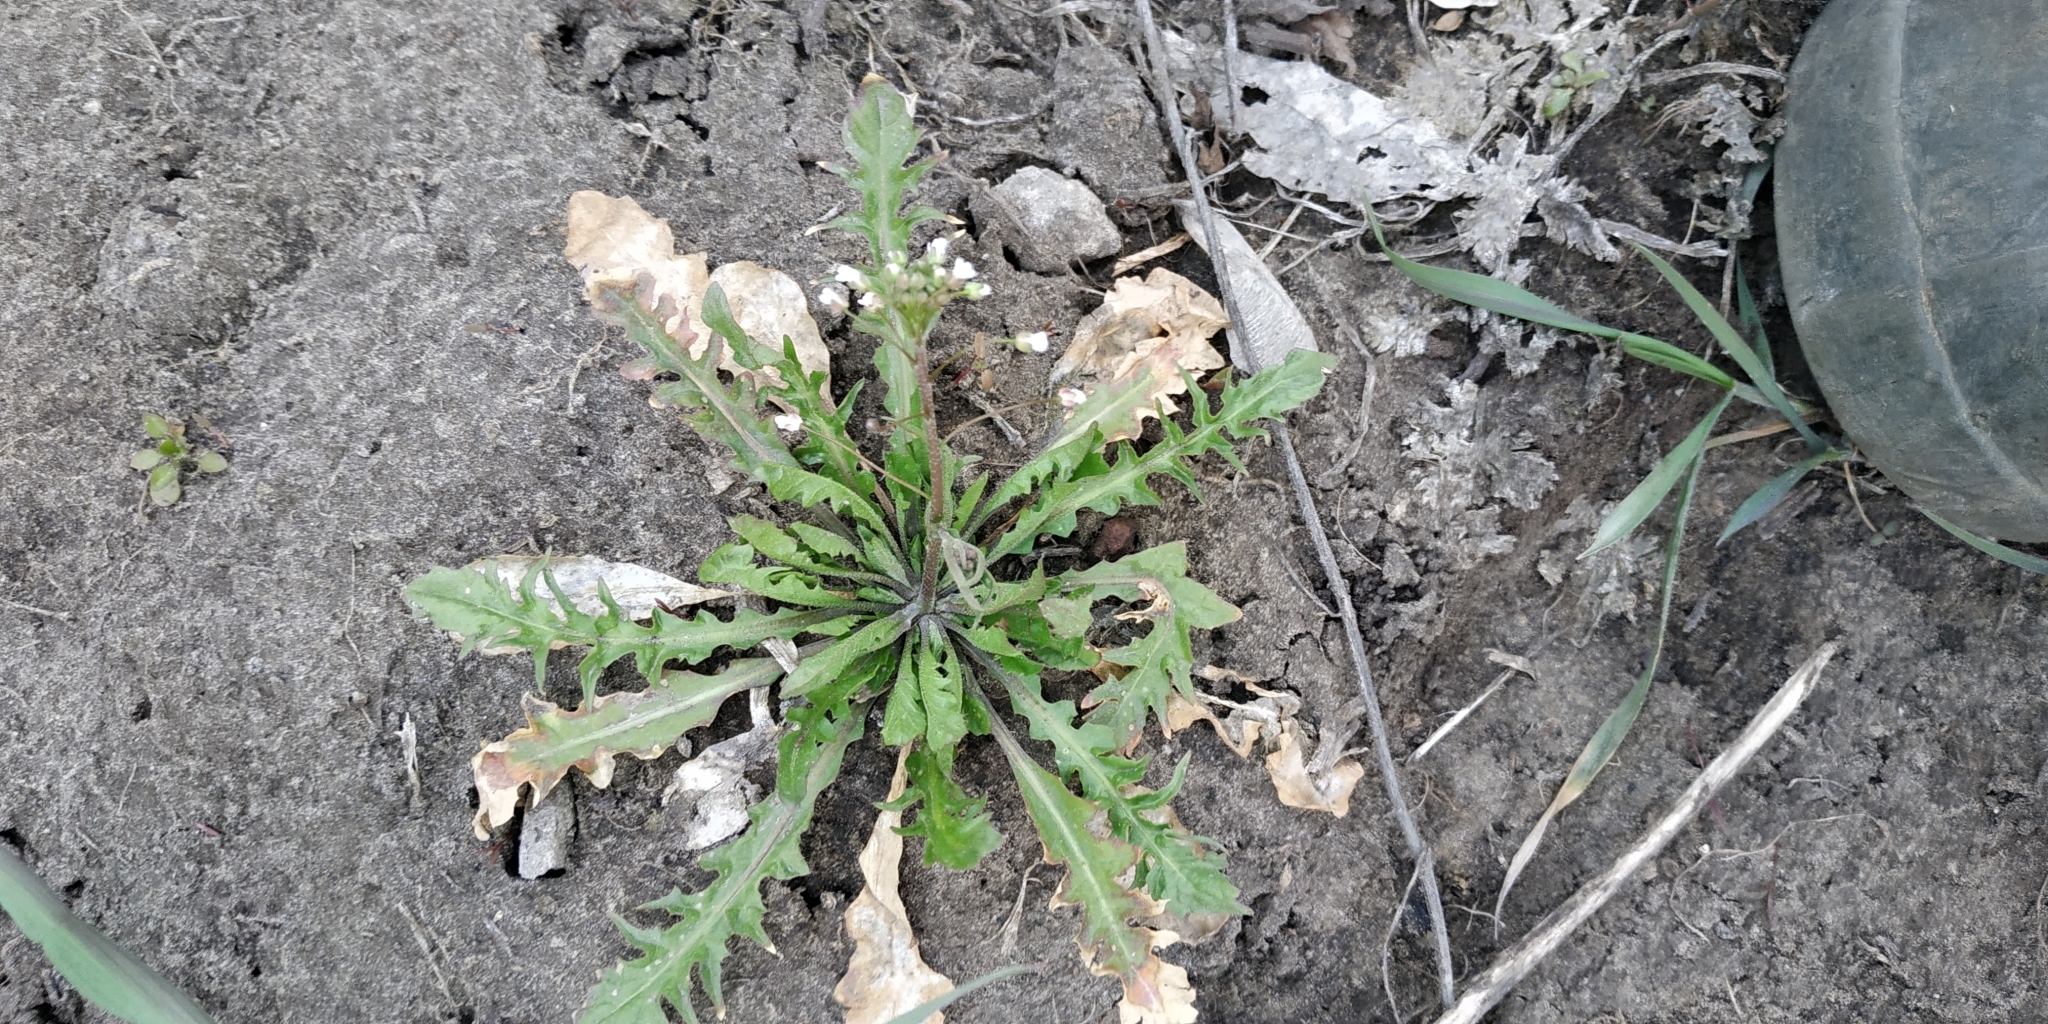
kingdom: Plantae
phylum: Tracheophyta
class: Magnoliopsida
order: Brassicales
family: Brassicaceae
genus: Capsella
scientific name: Capsella bursa-pastoris
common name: Shepherd's purse
